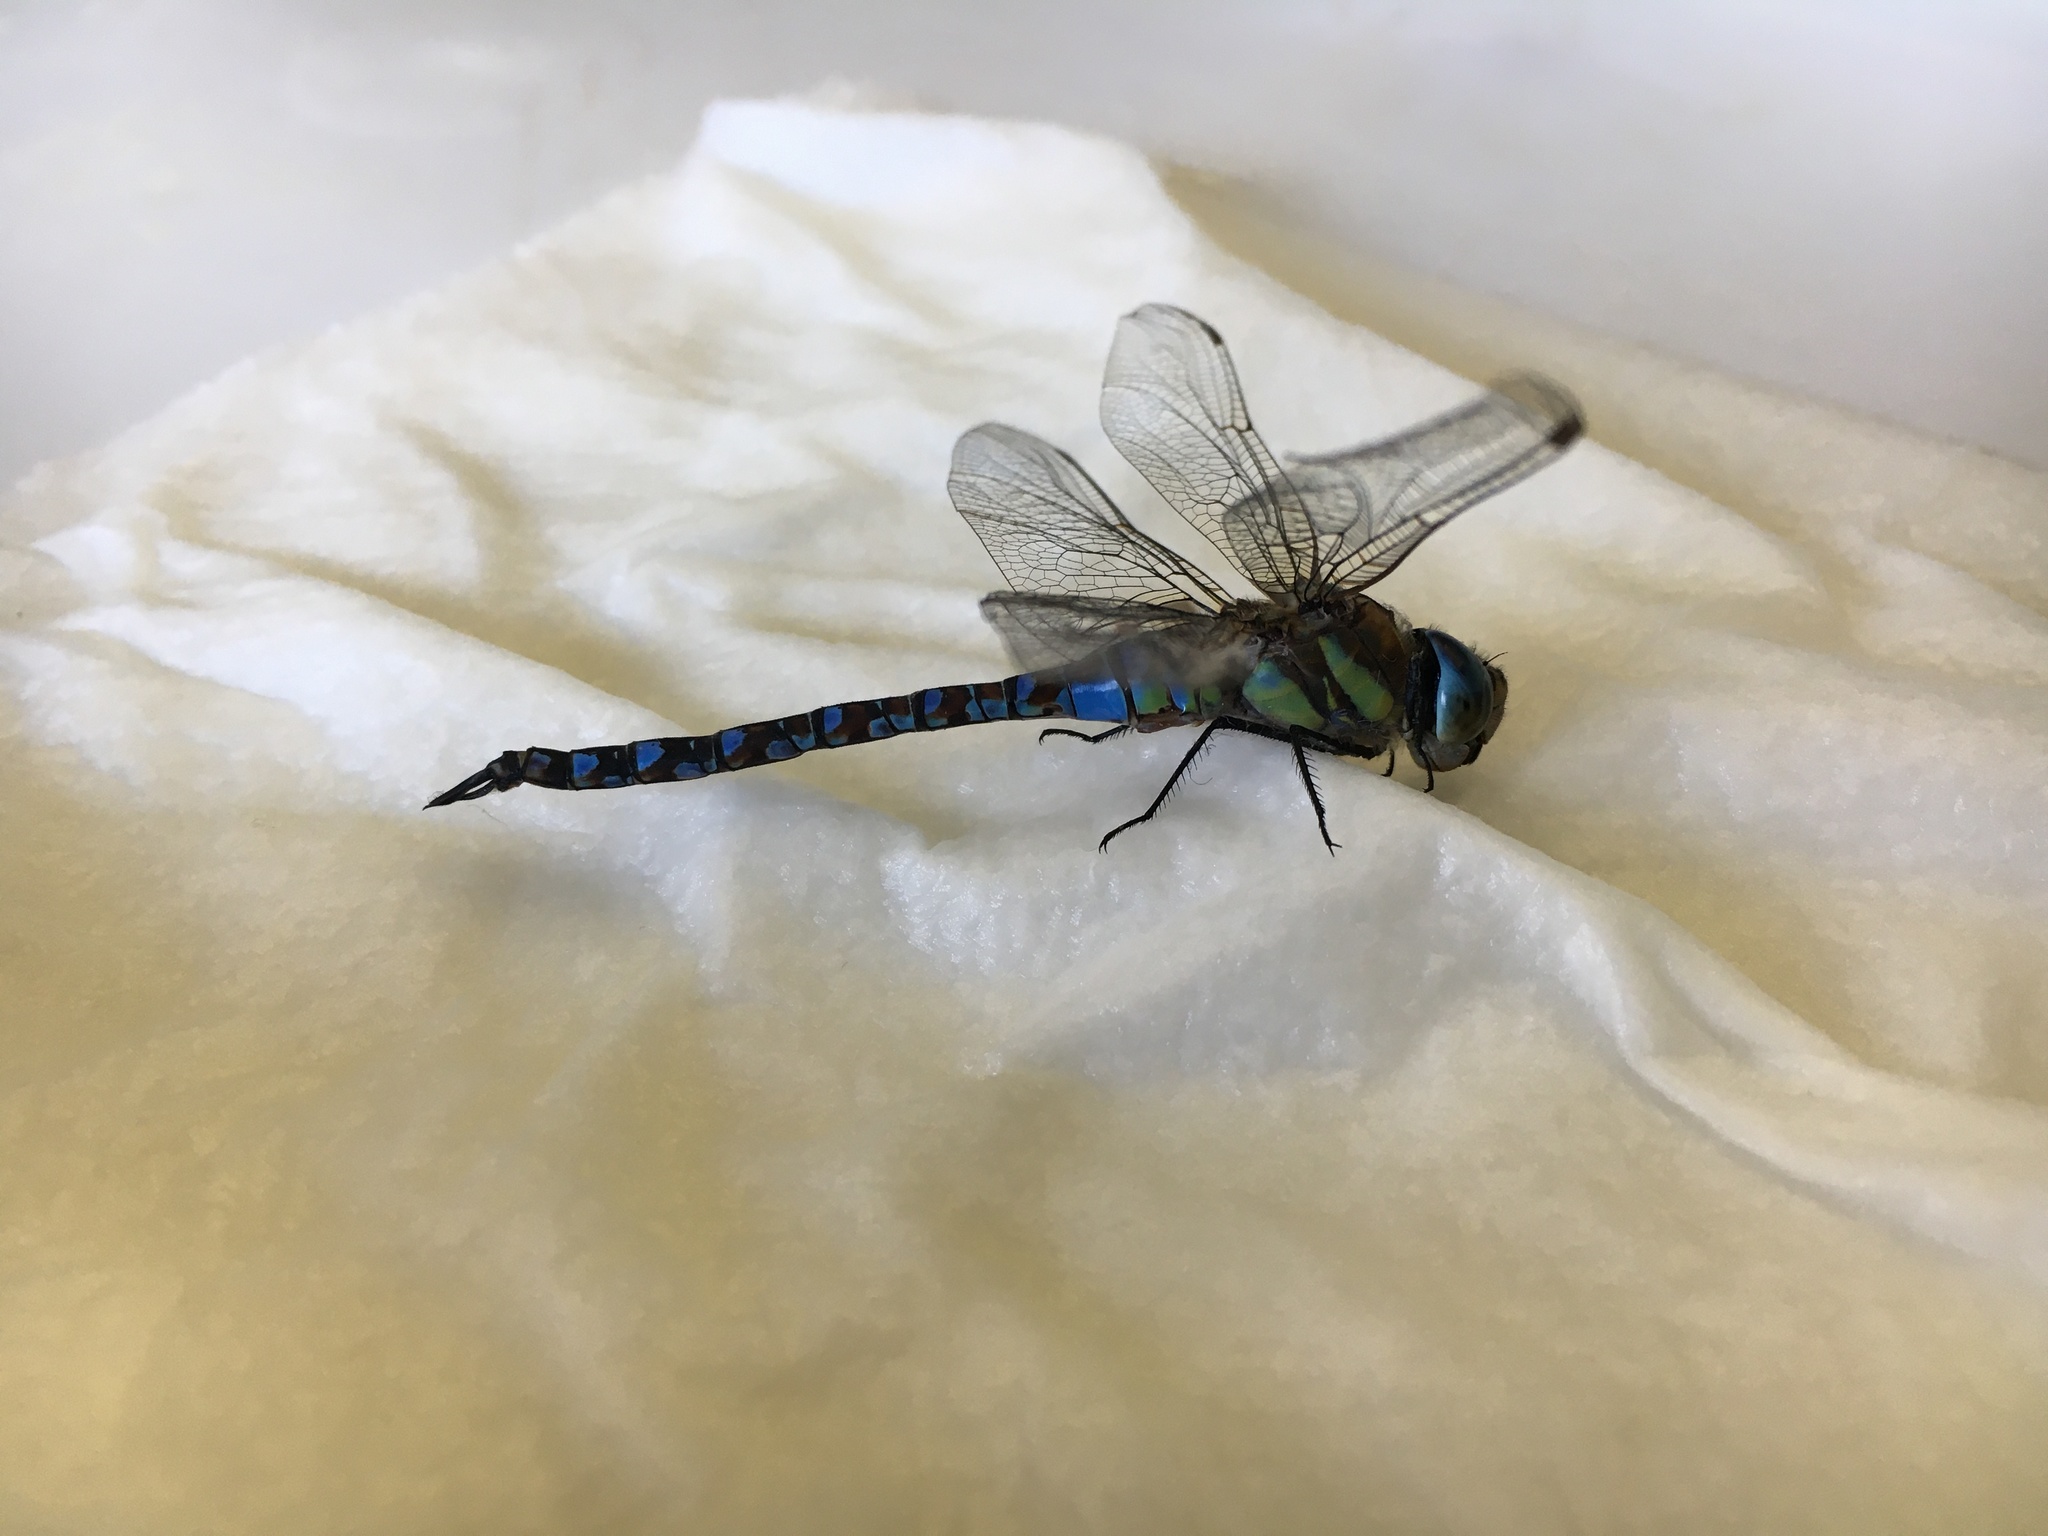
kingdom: Animalia
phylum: Arthropoda
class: Insecta
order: Odonata
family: Aeshnidae
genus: Aeshna
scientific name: Aeshna mixta
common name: Migrant hawker
